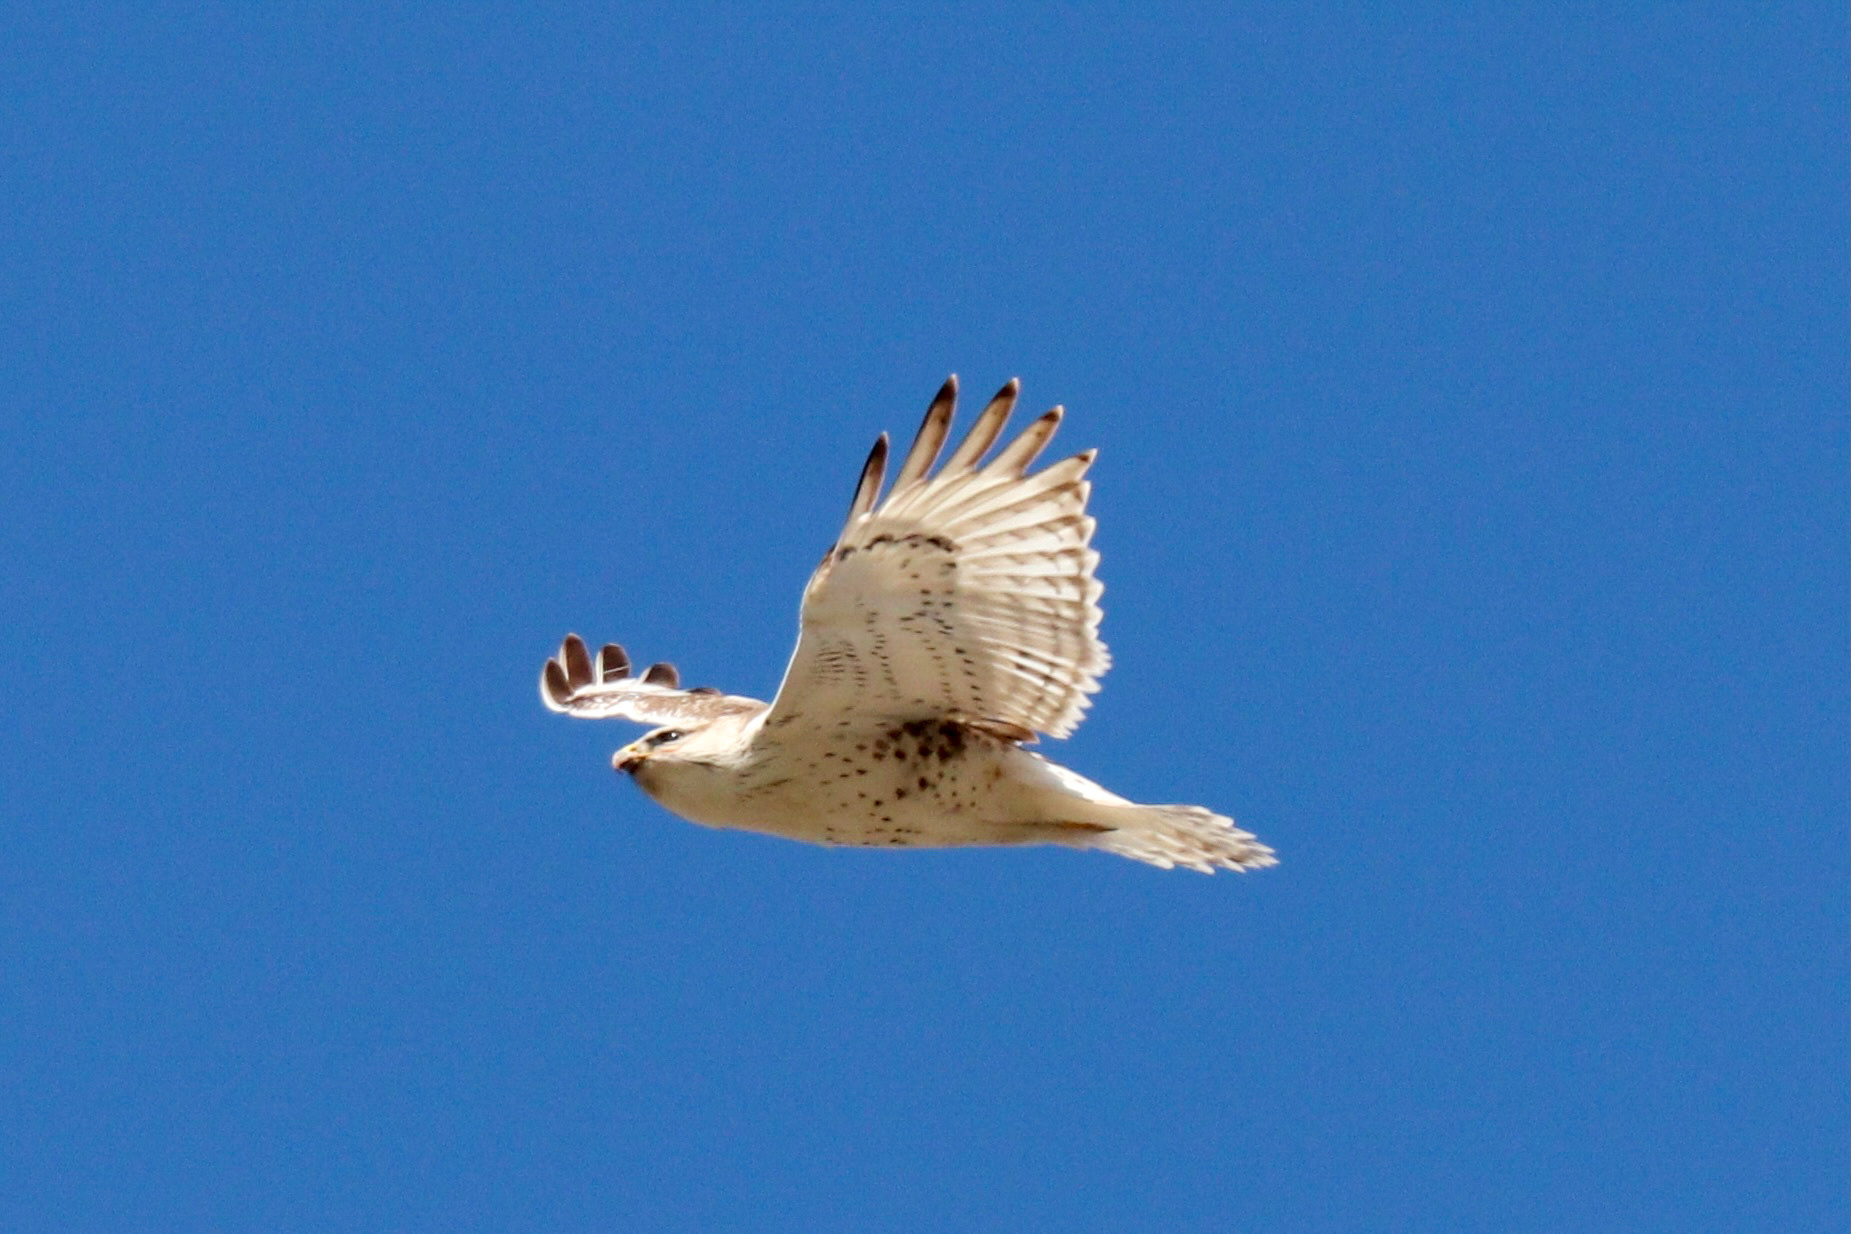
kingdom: Animalia
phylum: Chordata
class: Aves
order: Accipitriformes
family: Accipitridae
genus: Buteo
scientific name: Buteo regalis
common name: Ferruginous hawk
